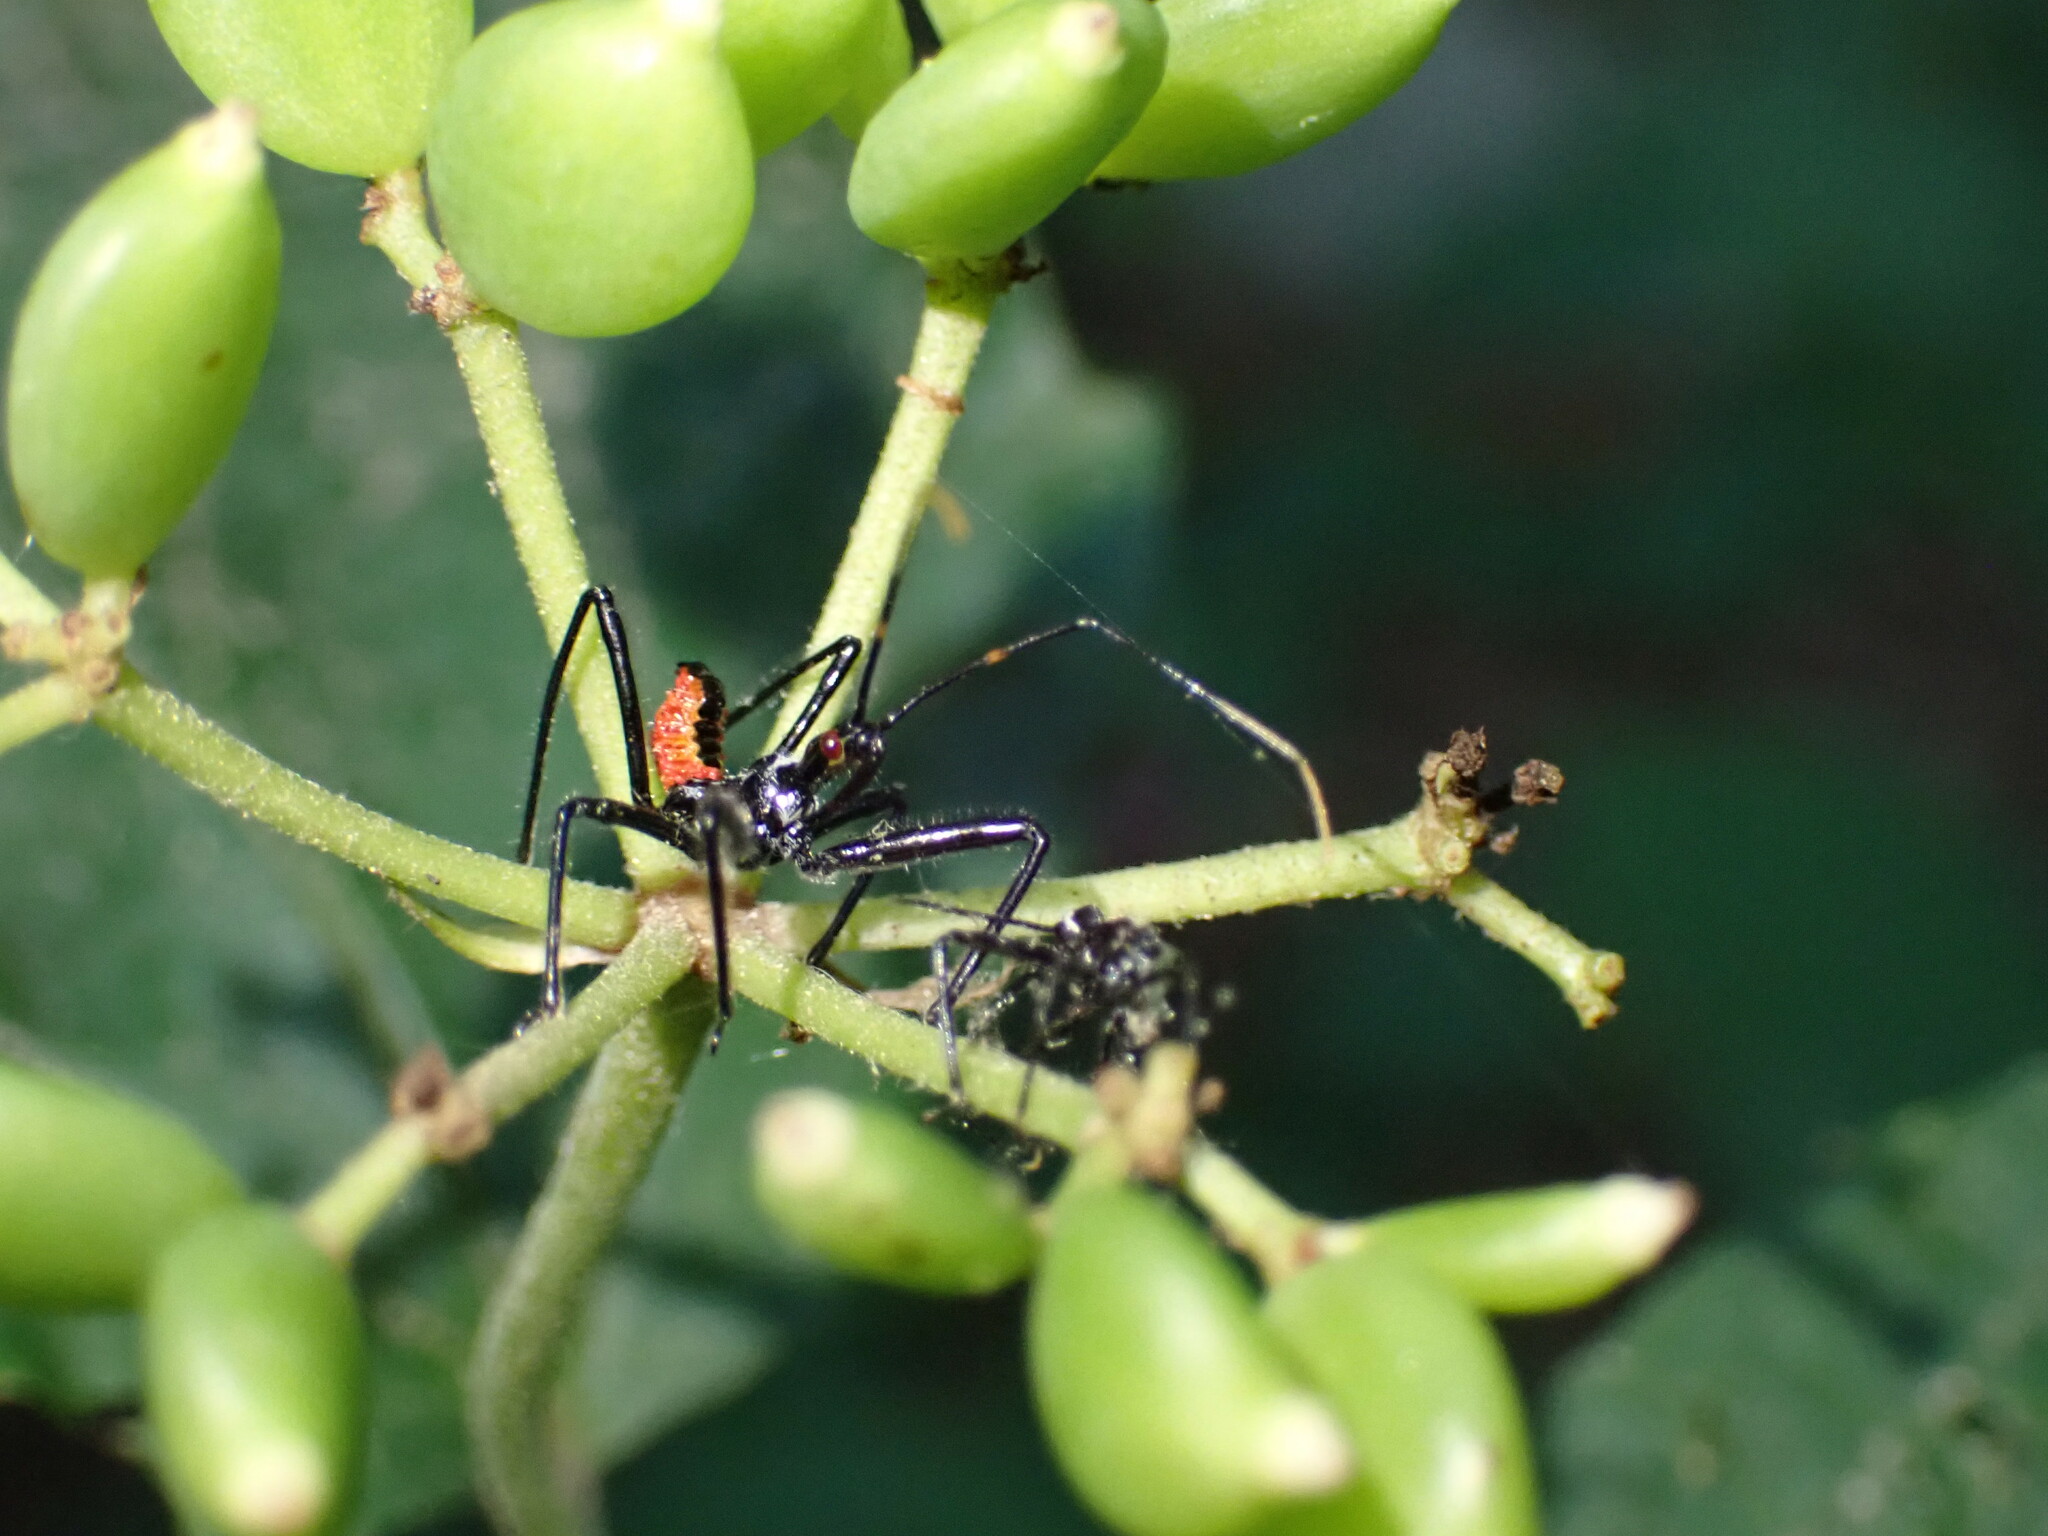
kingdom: Animalia
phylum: Arthropoda
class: Insecta
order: Hemiptera
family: Reduviidae
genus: Arilus
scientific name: Arilus cristatus
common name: North american wheel bug
